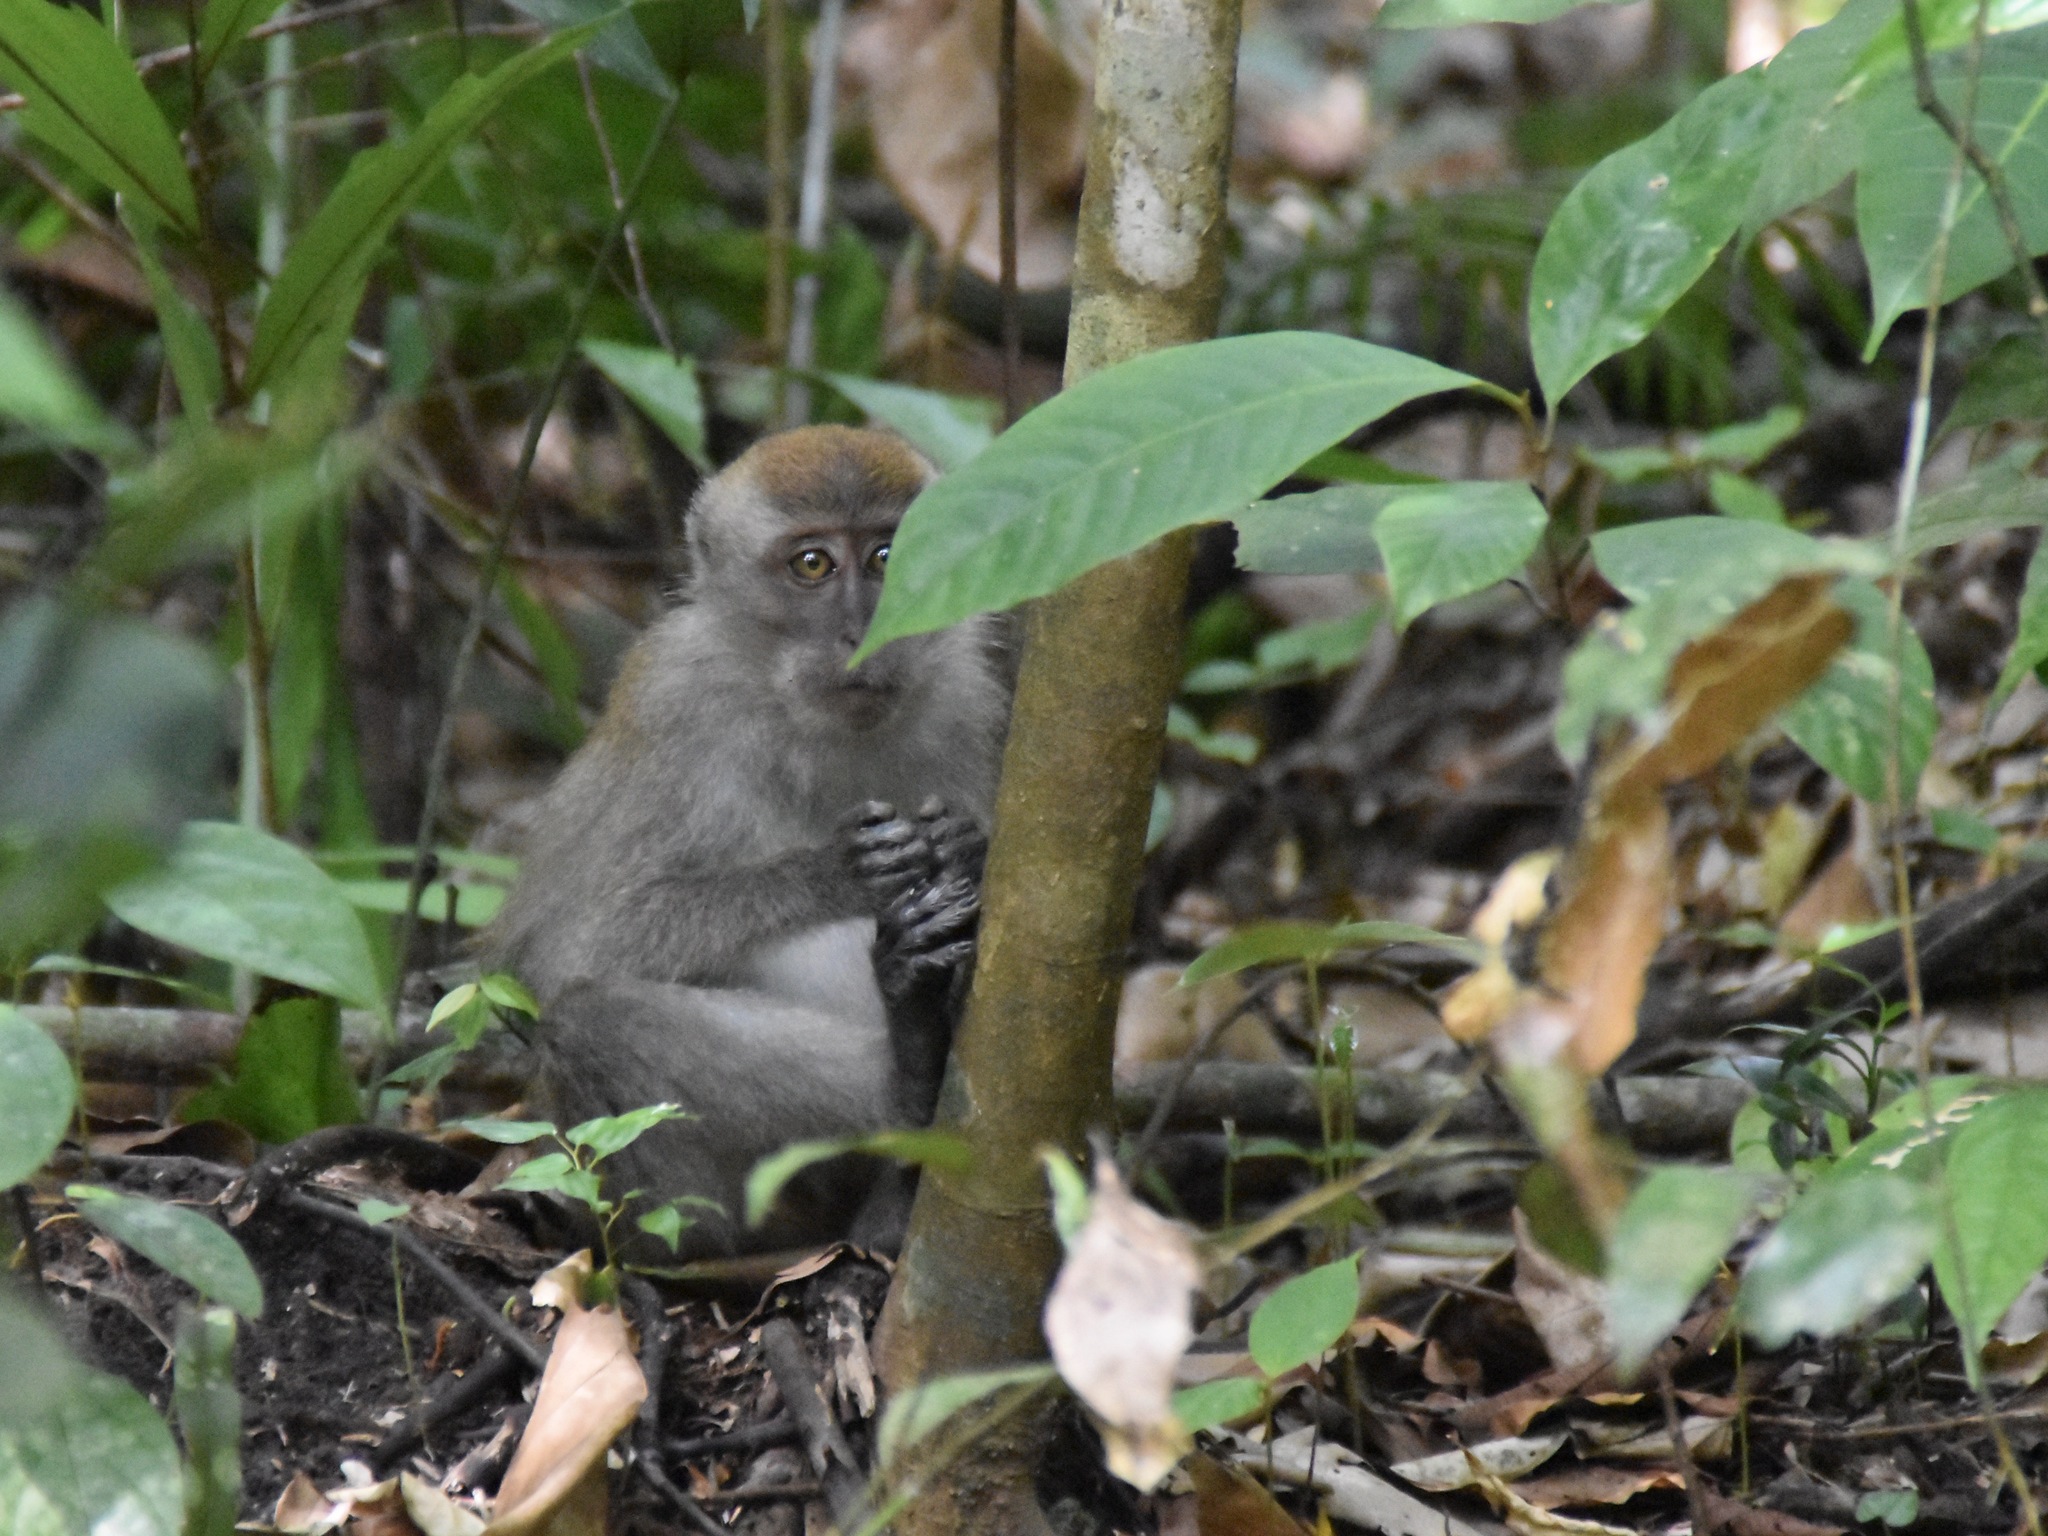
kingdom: Animalia
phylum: Chordata
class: Mammalia
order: Primates
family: Cercopithecidae
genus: Macaca
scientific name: Macaca fascicularis
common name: Crab-eating macaque
